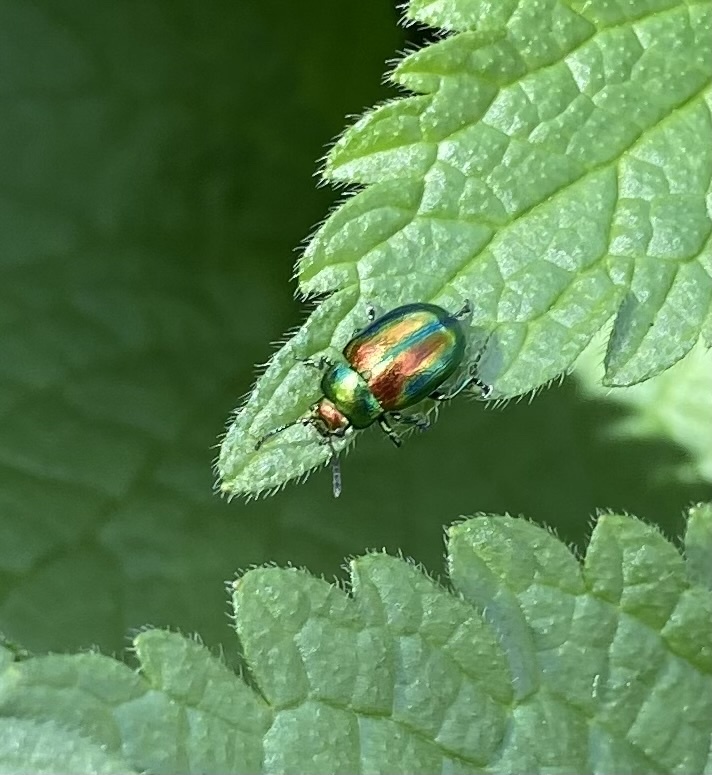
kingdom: Animalia
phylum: Arthropoda
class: Insecta
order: Coleoptera
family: Chrysomelidae
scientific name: Chrysomelidae
